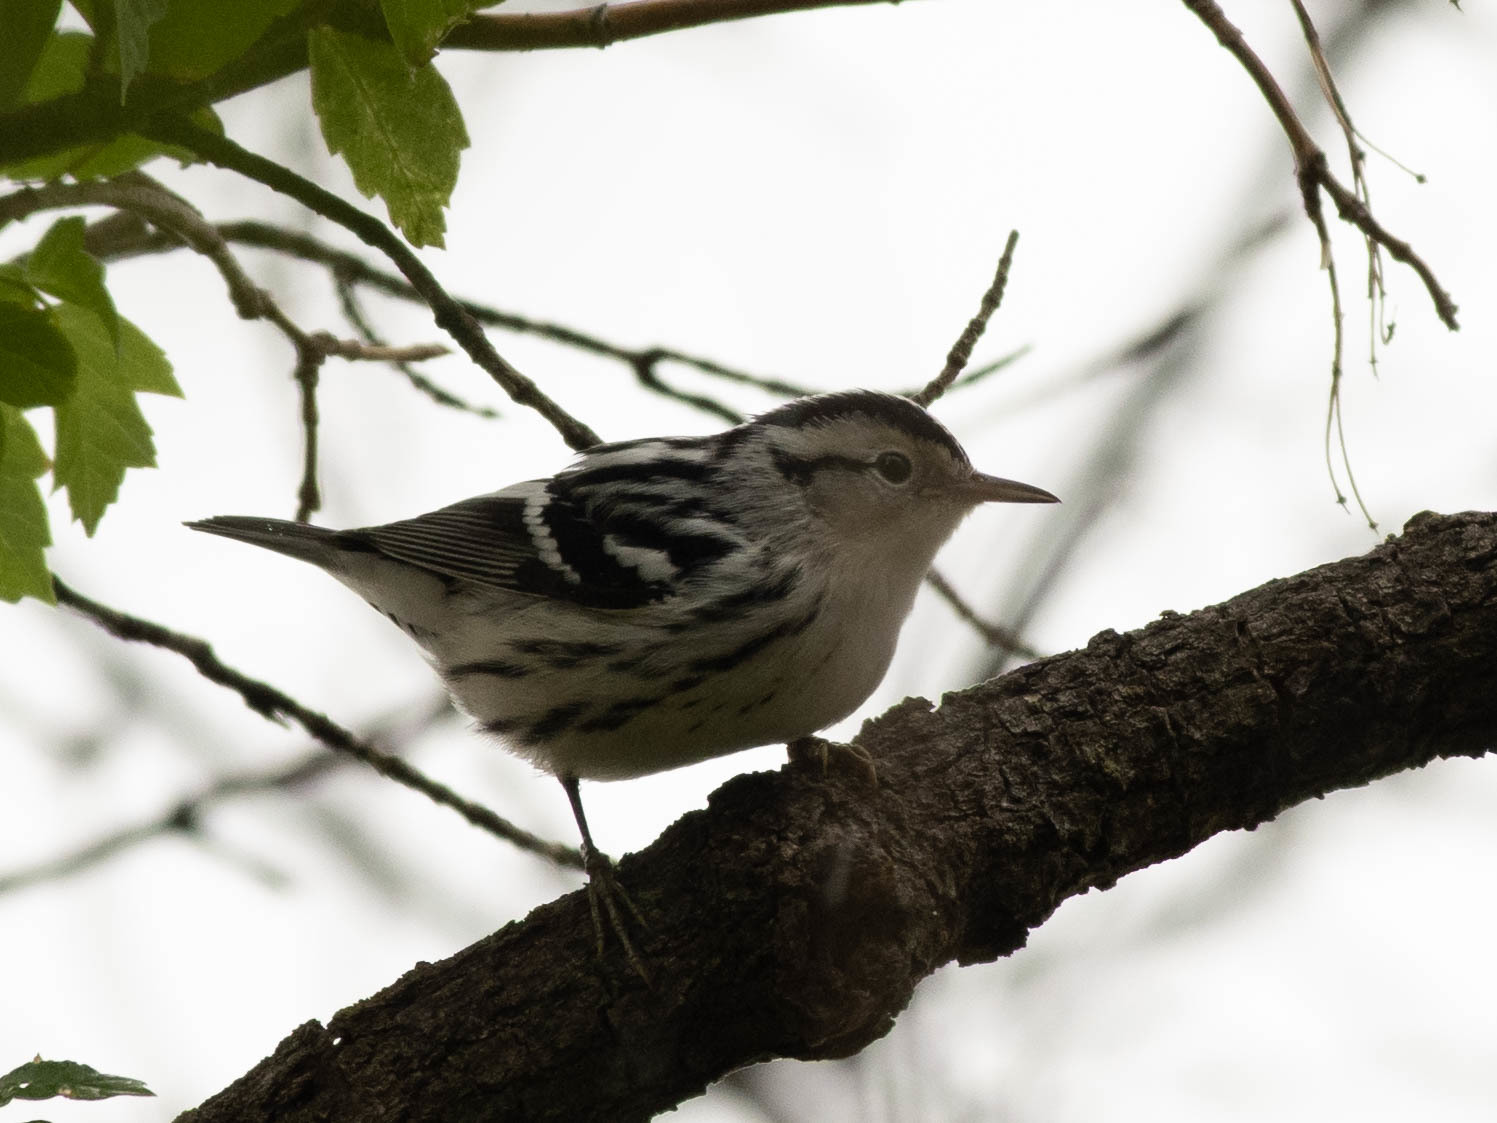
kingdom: Animalia
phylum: Chordata
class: Aves
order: Passeriformes
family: Parulidae
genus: Mniotilta
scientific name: Mniotilta varia
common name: Black-and-white warbler
